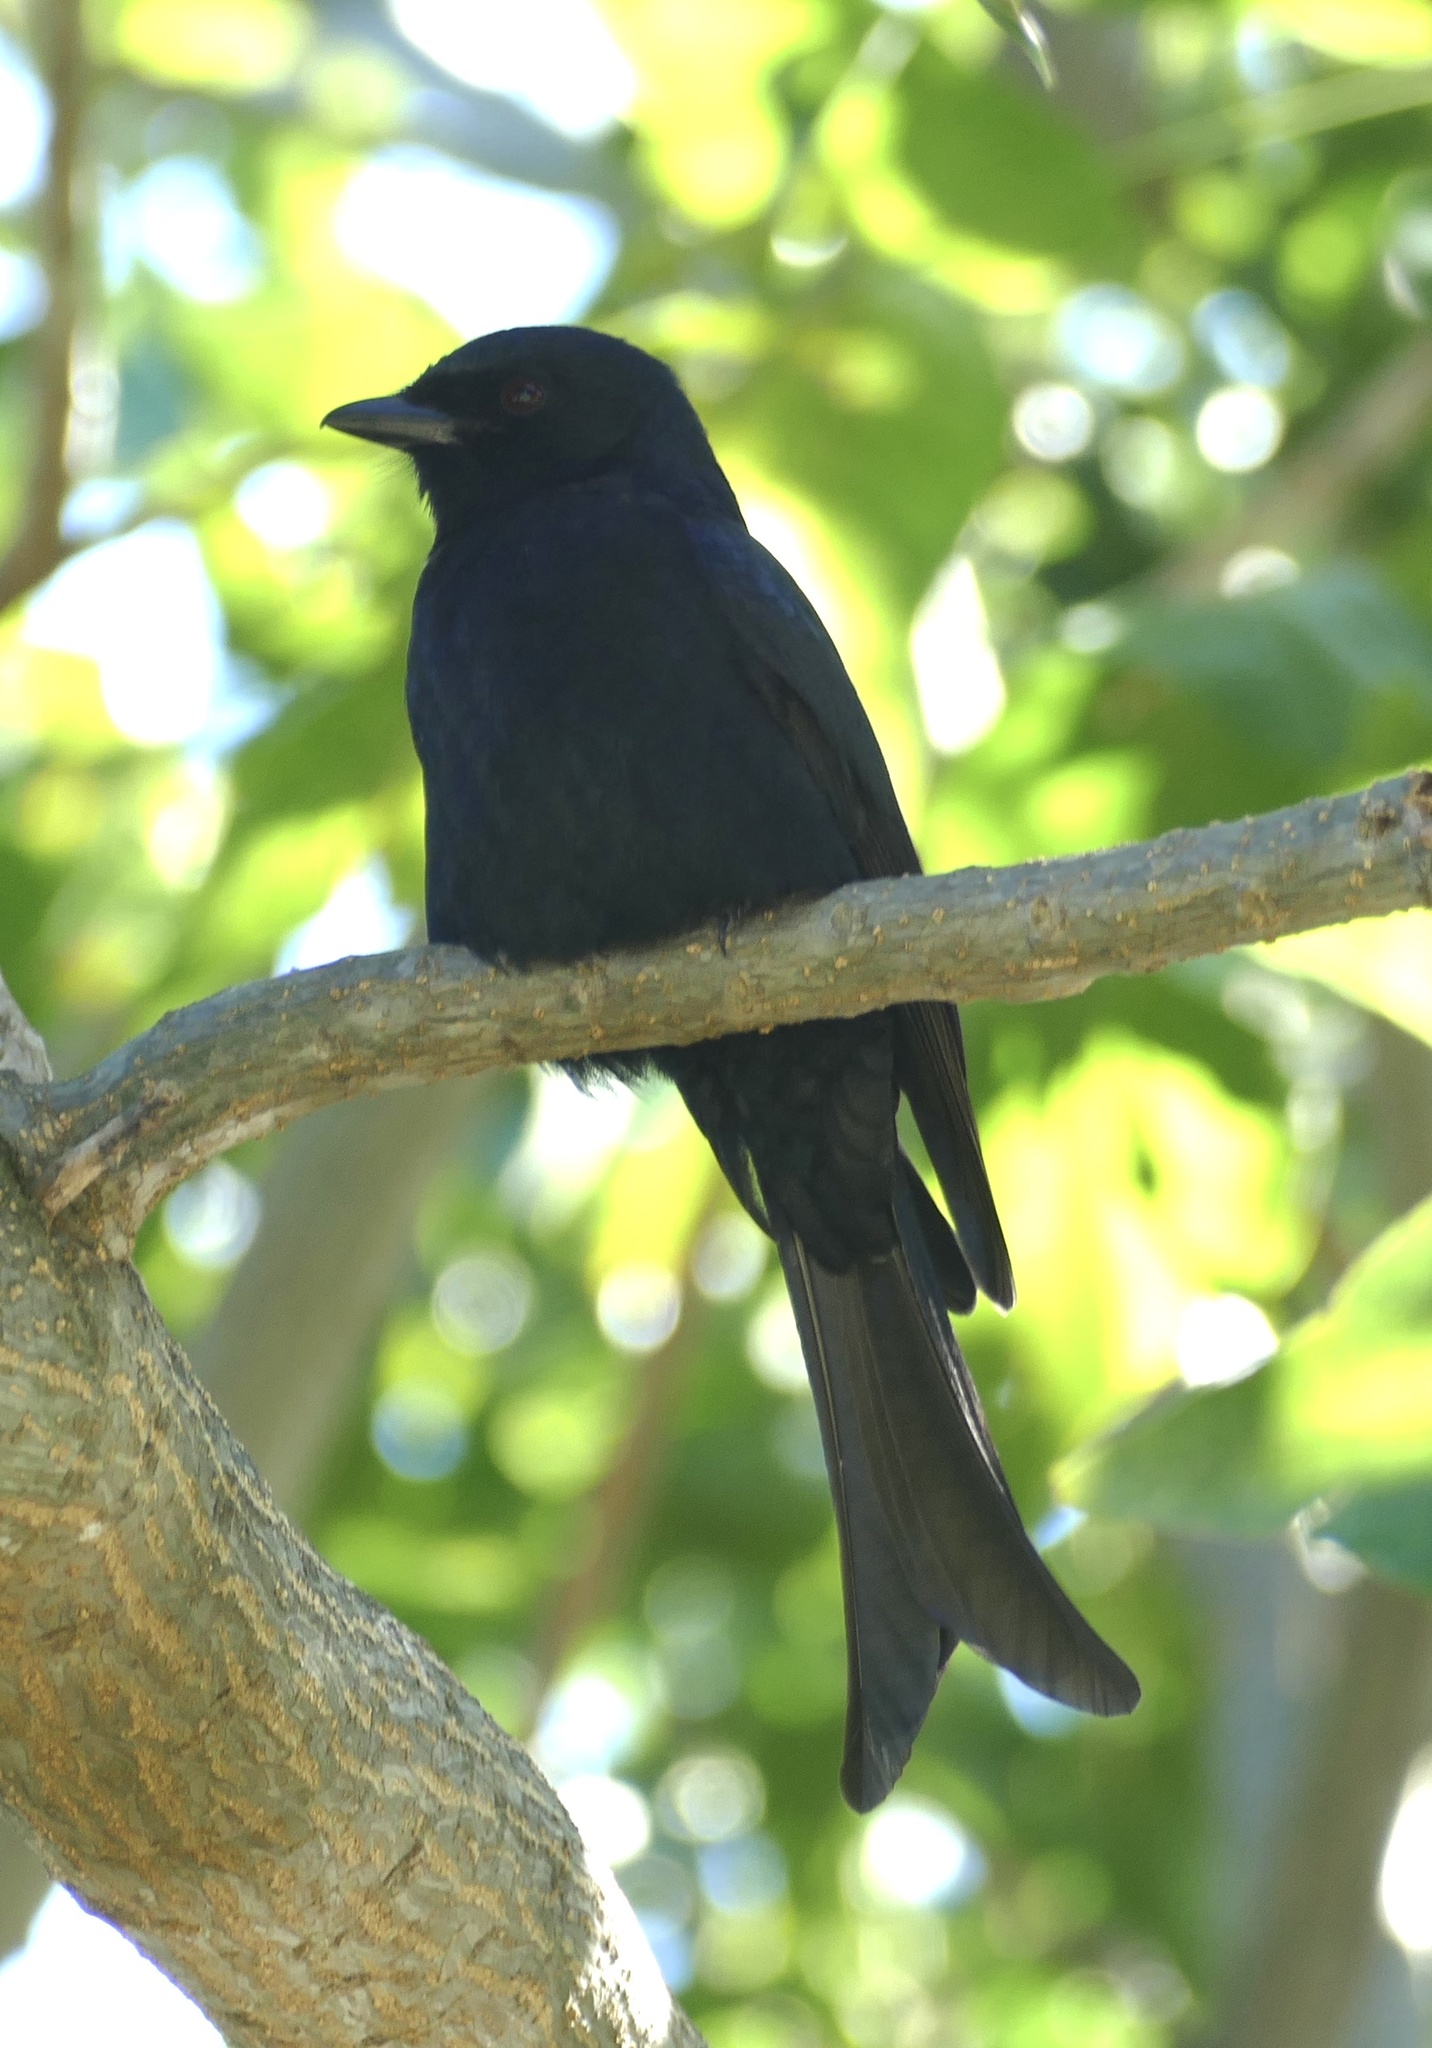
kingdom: Animalia
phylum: Chordata
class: Aves
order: Passeriformes
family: Dicruridae
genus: Dicrurus
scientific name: Dicrurus adsimilis
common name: Fork-tailed drongo
